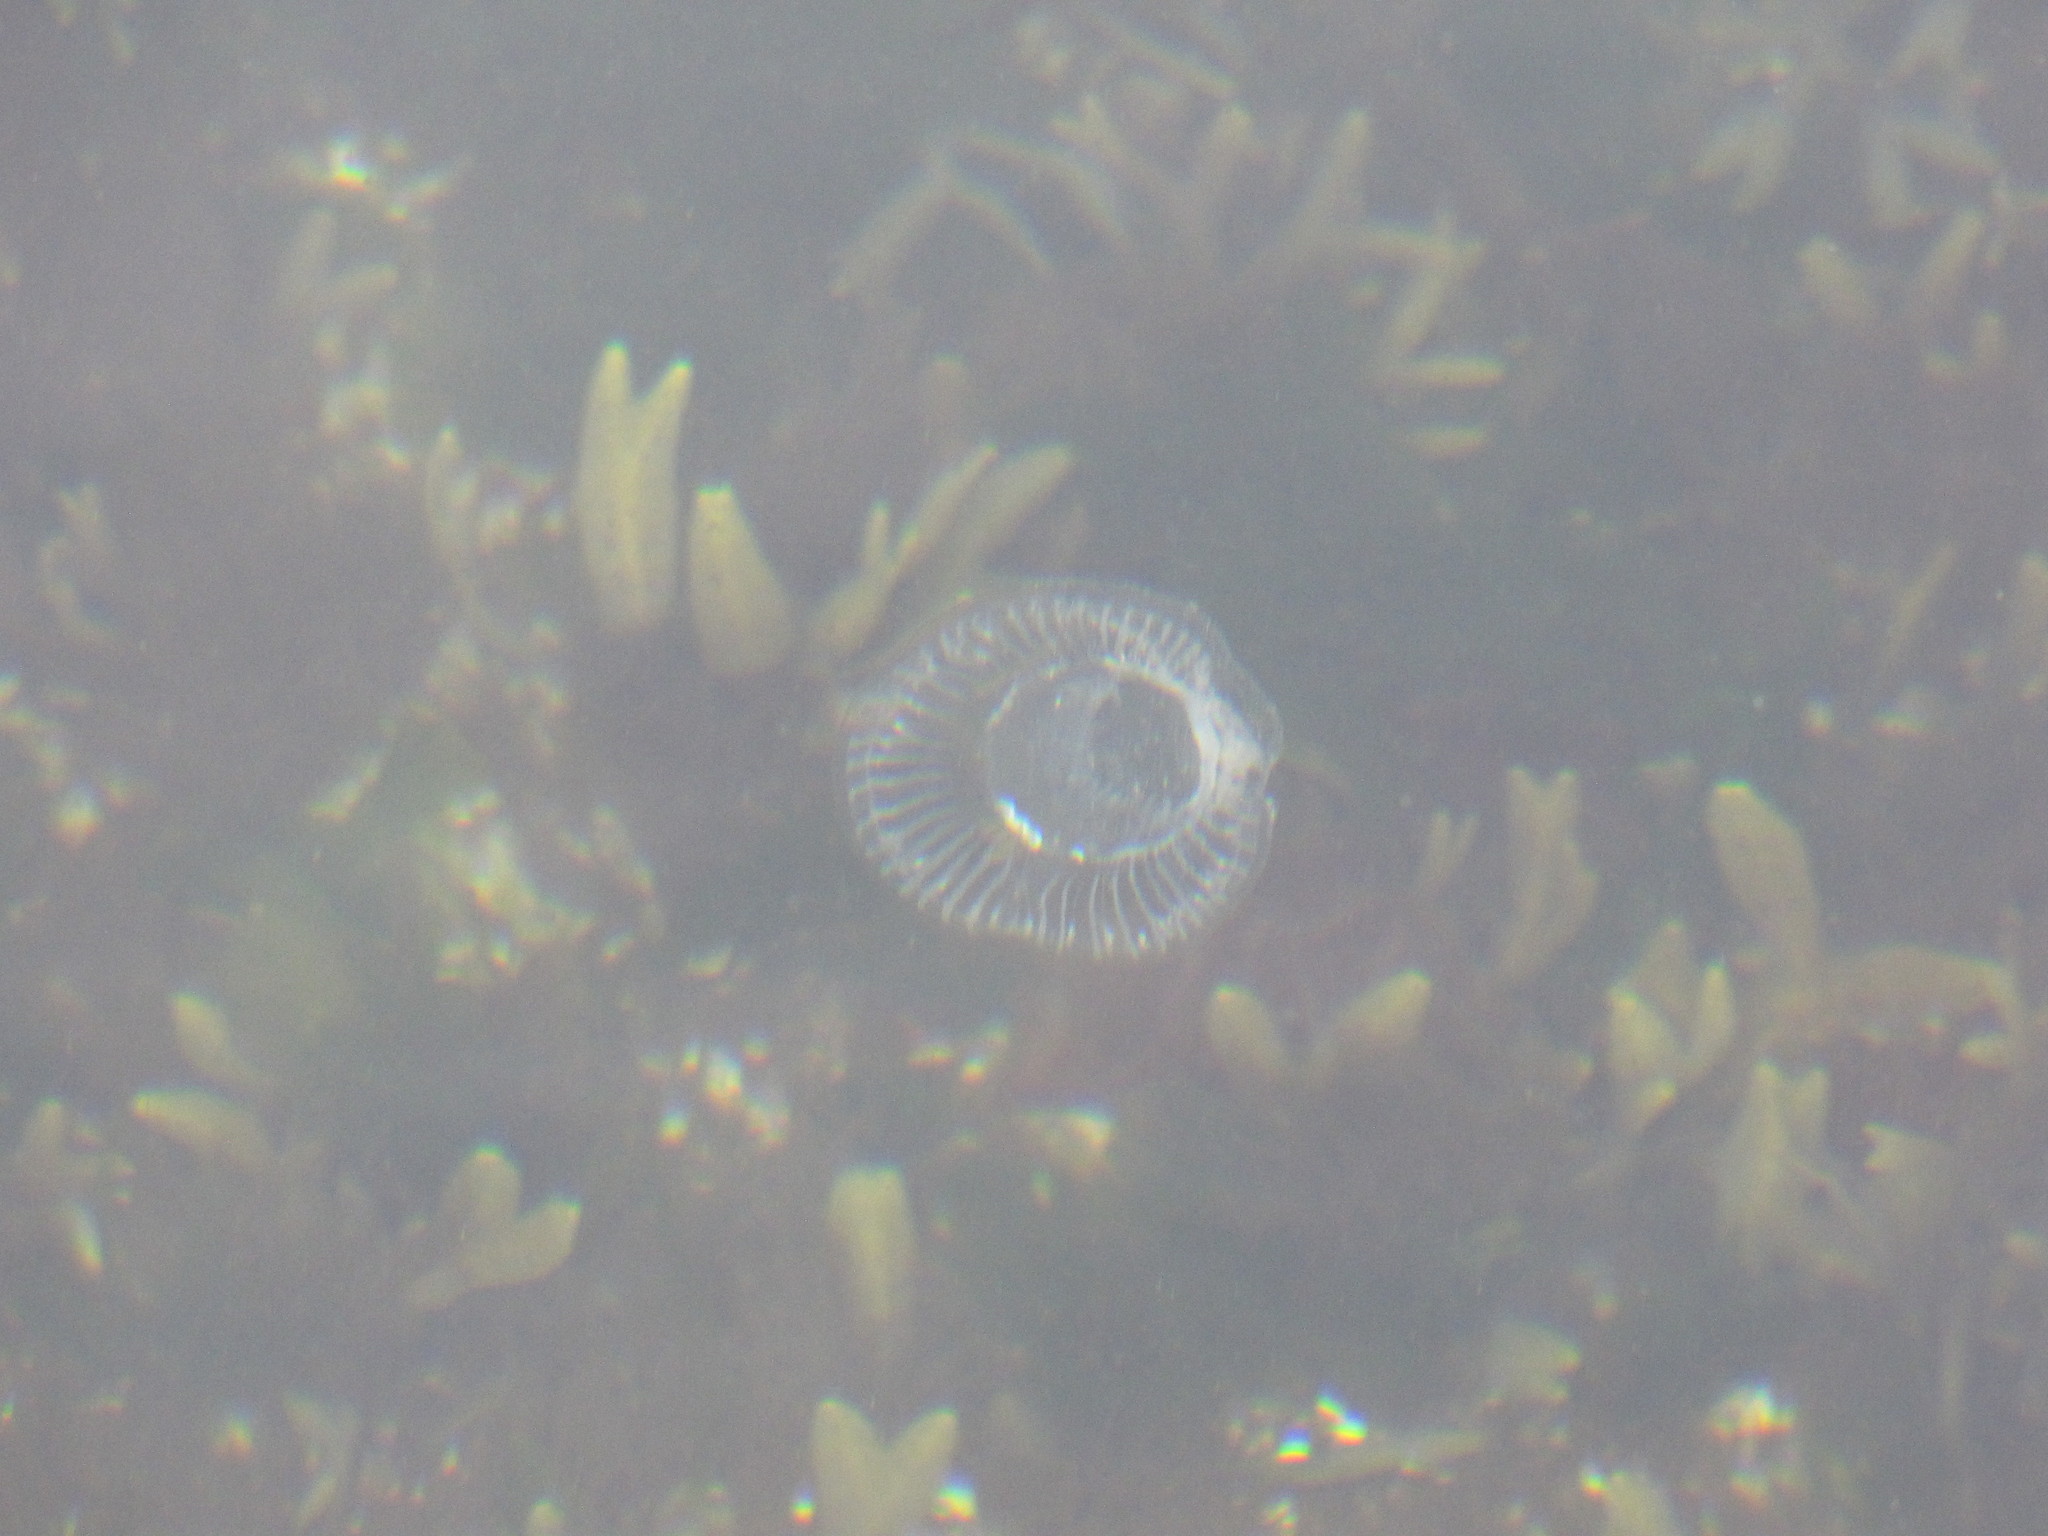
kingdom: Animalia
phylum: Cnidaria
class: Hydrozoa
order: Leptothecata
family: Aequoreidae
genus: Aequorea
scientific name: Aequorea victoria
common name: Water jellyfish
